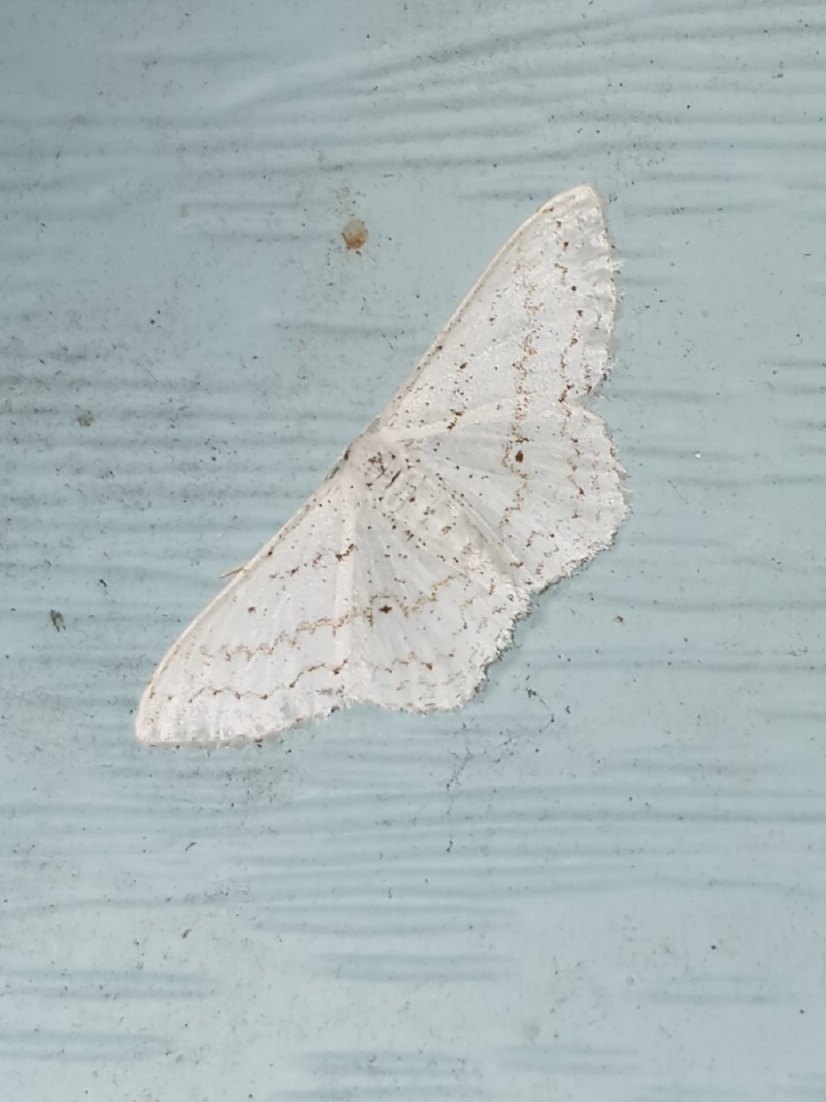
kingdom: Animalia
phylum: Arthropoda
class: Insecta
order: Lepidoptera
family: Geometridae
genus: Idaea
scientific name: Idaea tacturata
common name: Dot-lined wave
